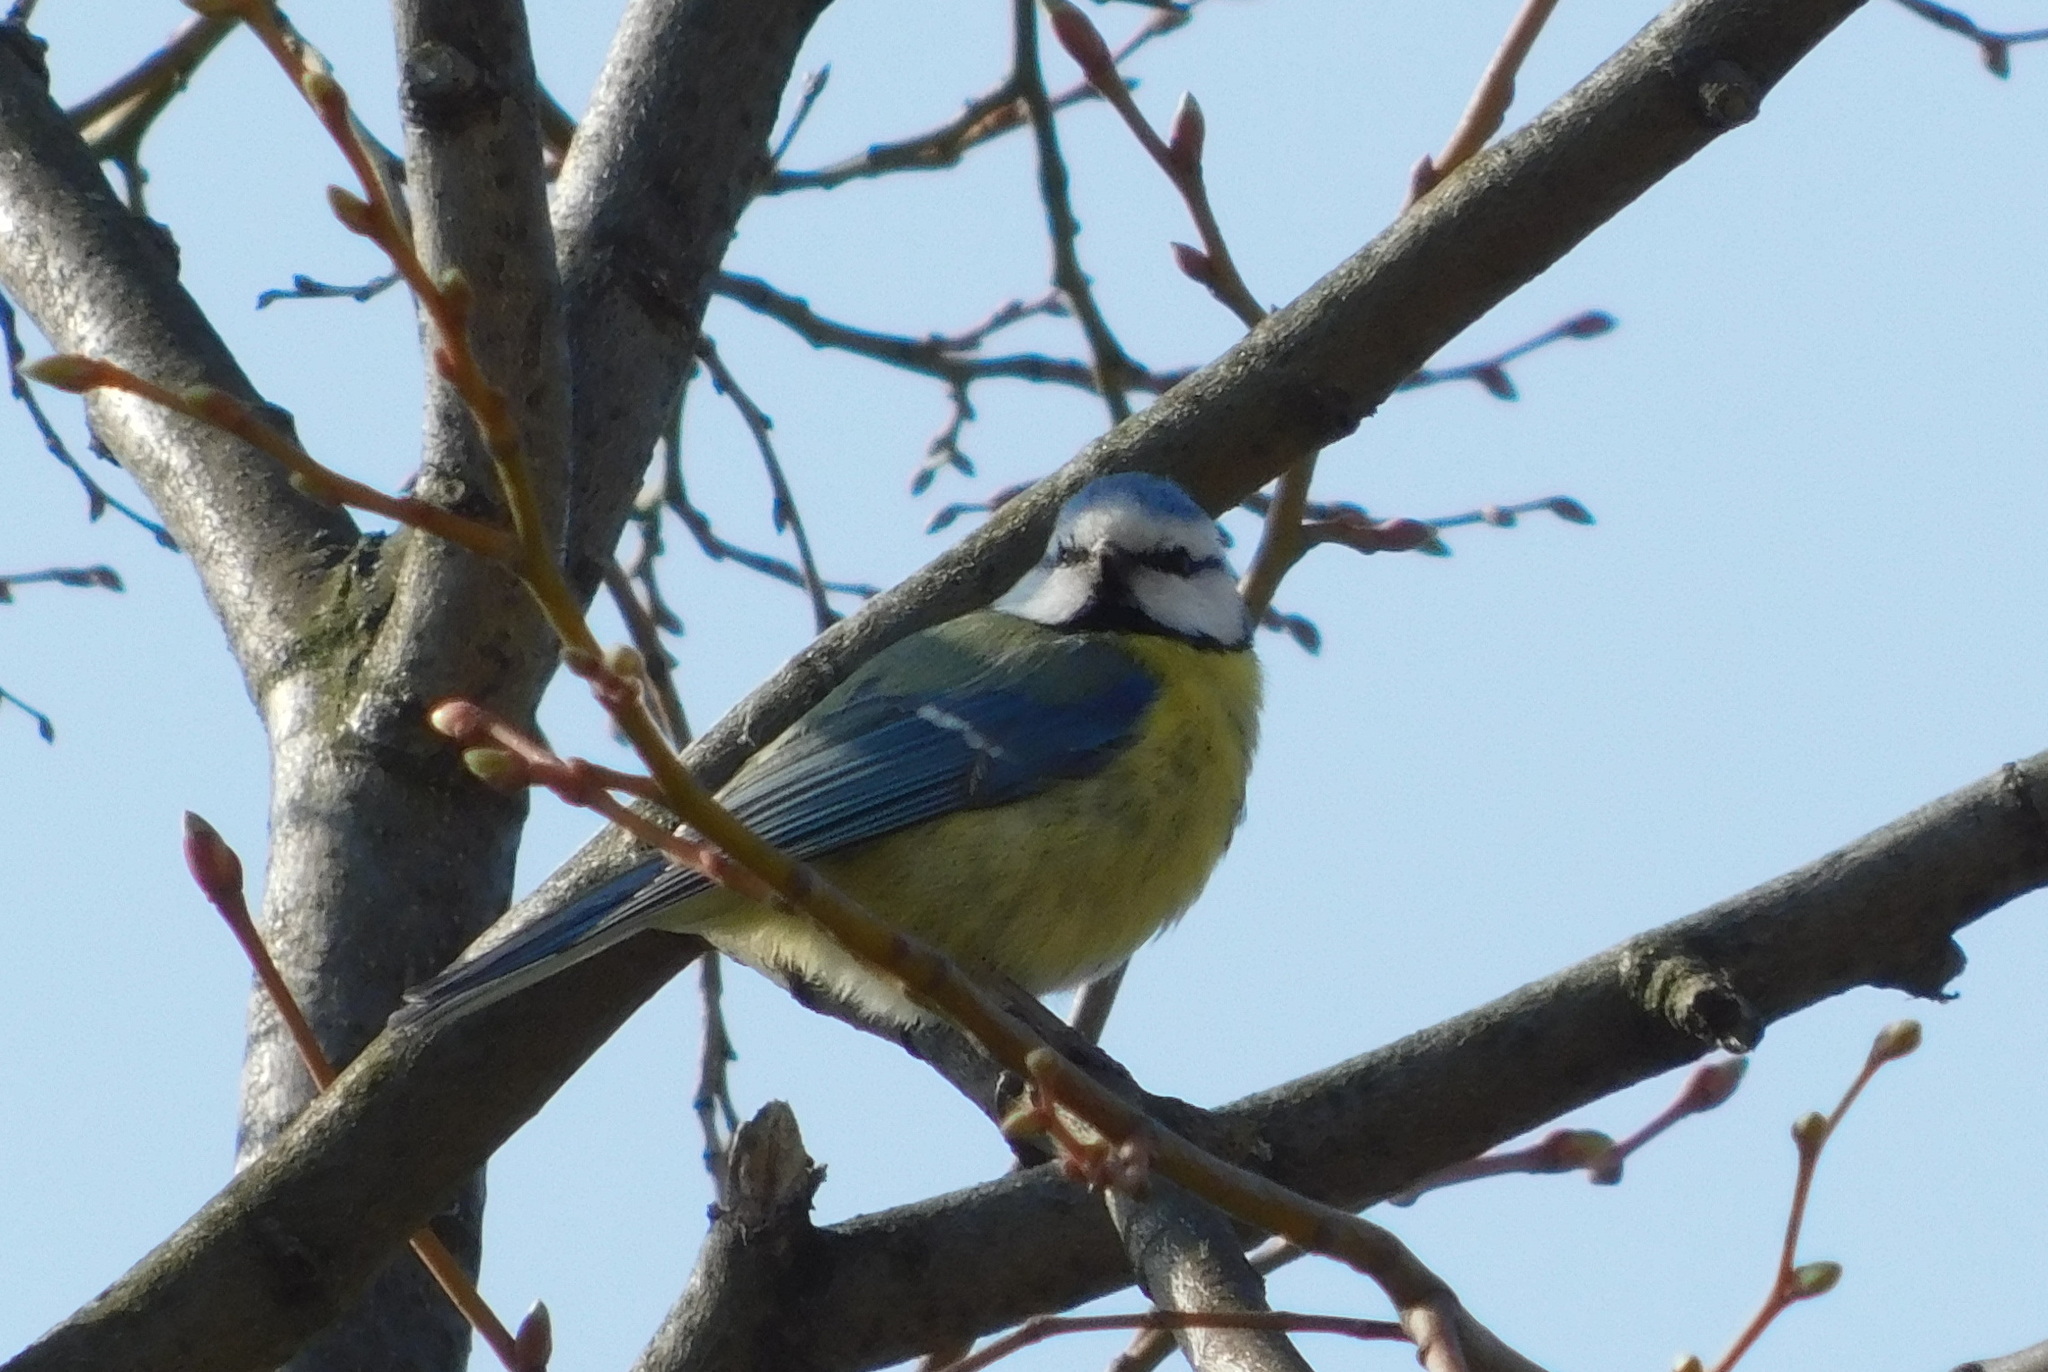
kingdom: Animalia
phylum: Chordata
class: Aves
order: Passeriformes
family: Paridae
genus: Cyanistes
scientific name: Cyanistes caeruleus
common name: Eurasian blue tit
